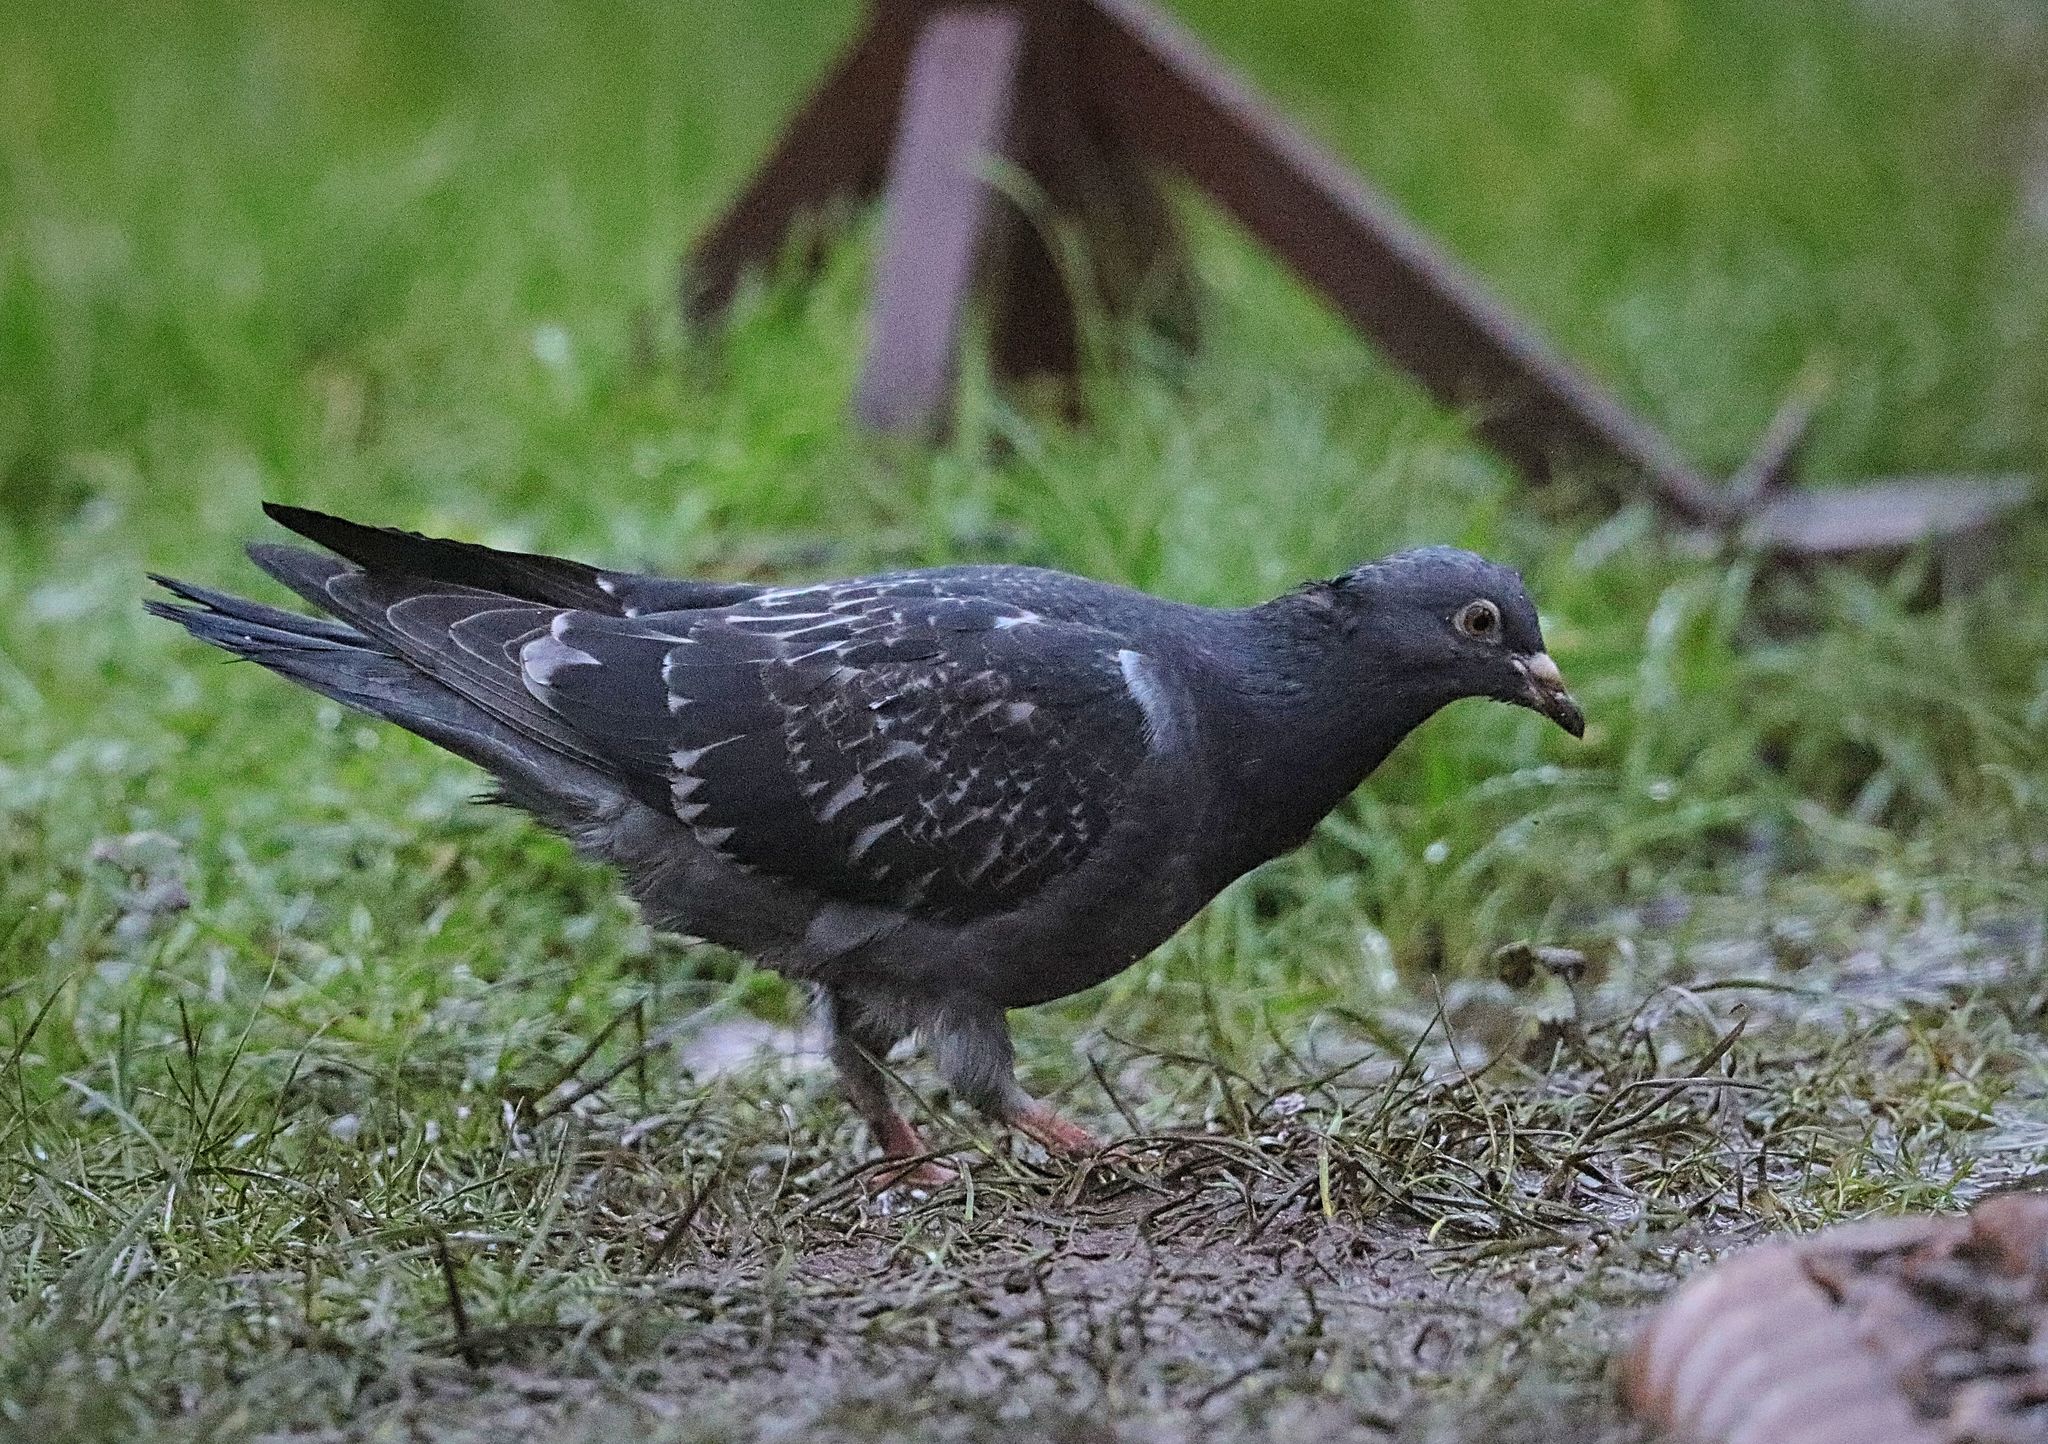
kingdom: Animalia
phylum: Chordata
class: Aves
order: Columbiformes
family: Columbidae
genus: Columba
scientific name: Columba livia
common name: Rock pigeon
